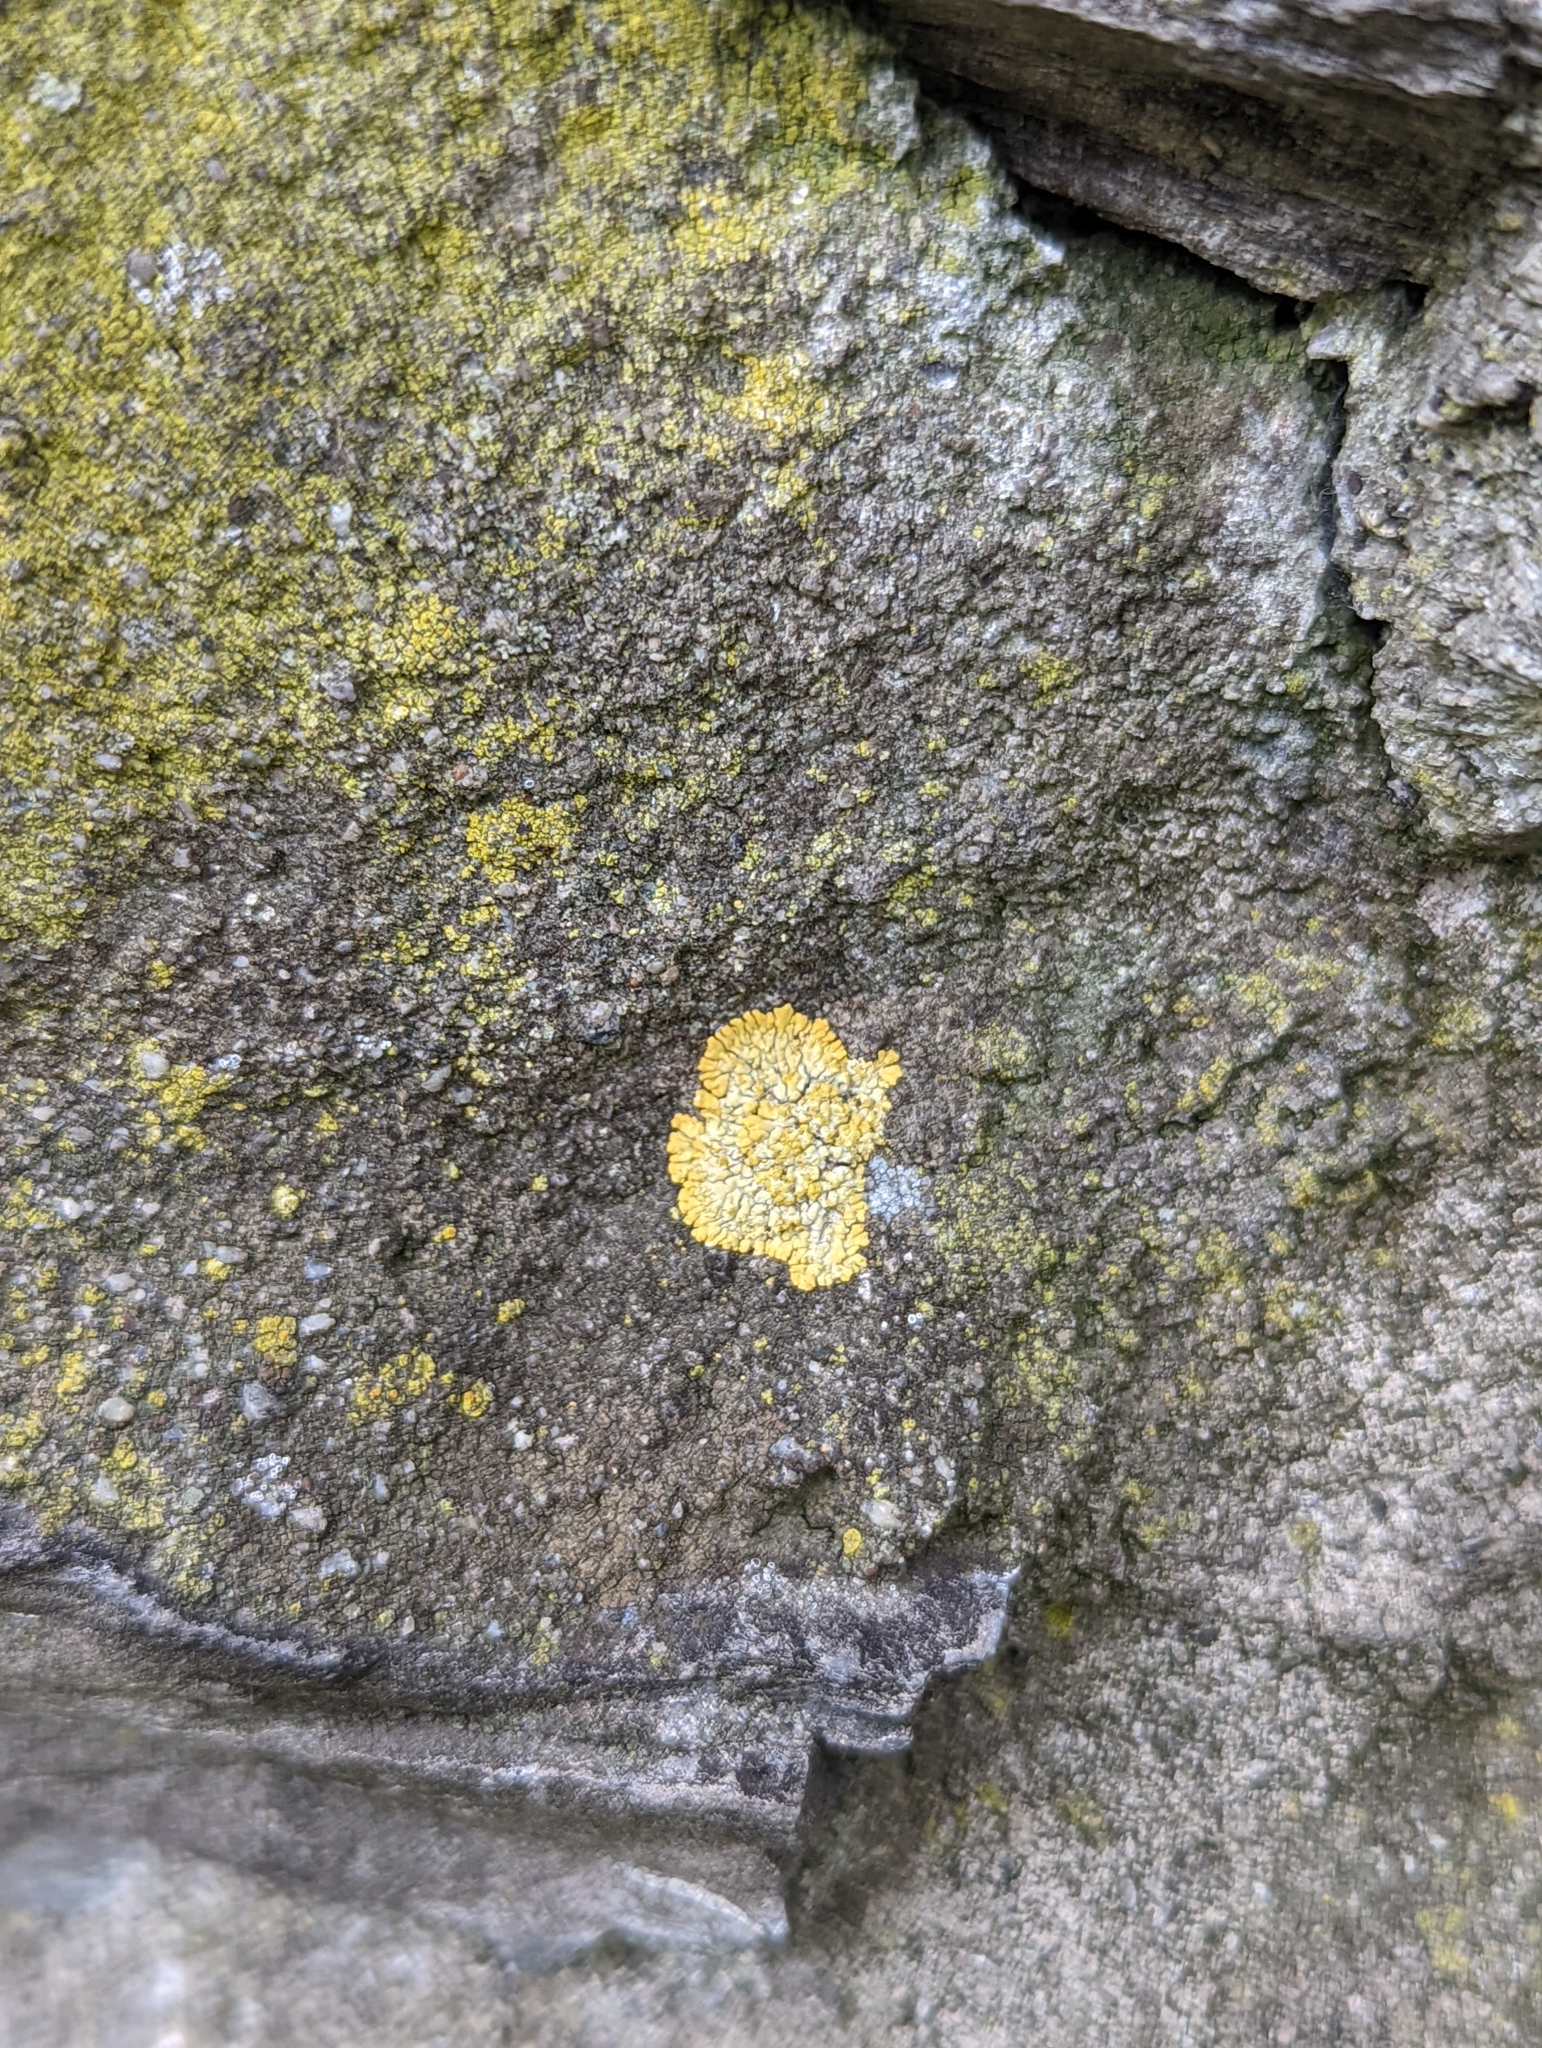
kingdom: Fungi
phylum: Ascomycota
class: Lecanoromycetes
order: Teloschistales
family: Teloschistaceae
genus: Calogaya
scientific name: Calogaya decipiens
